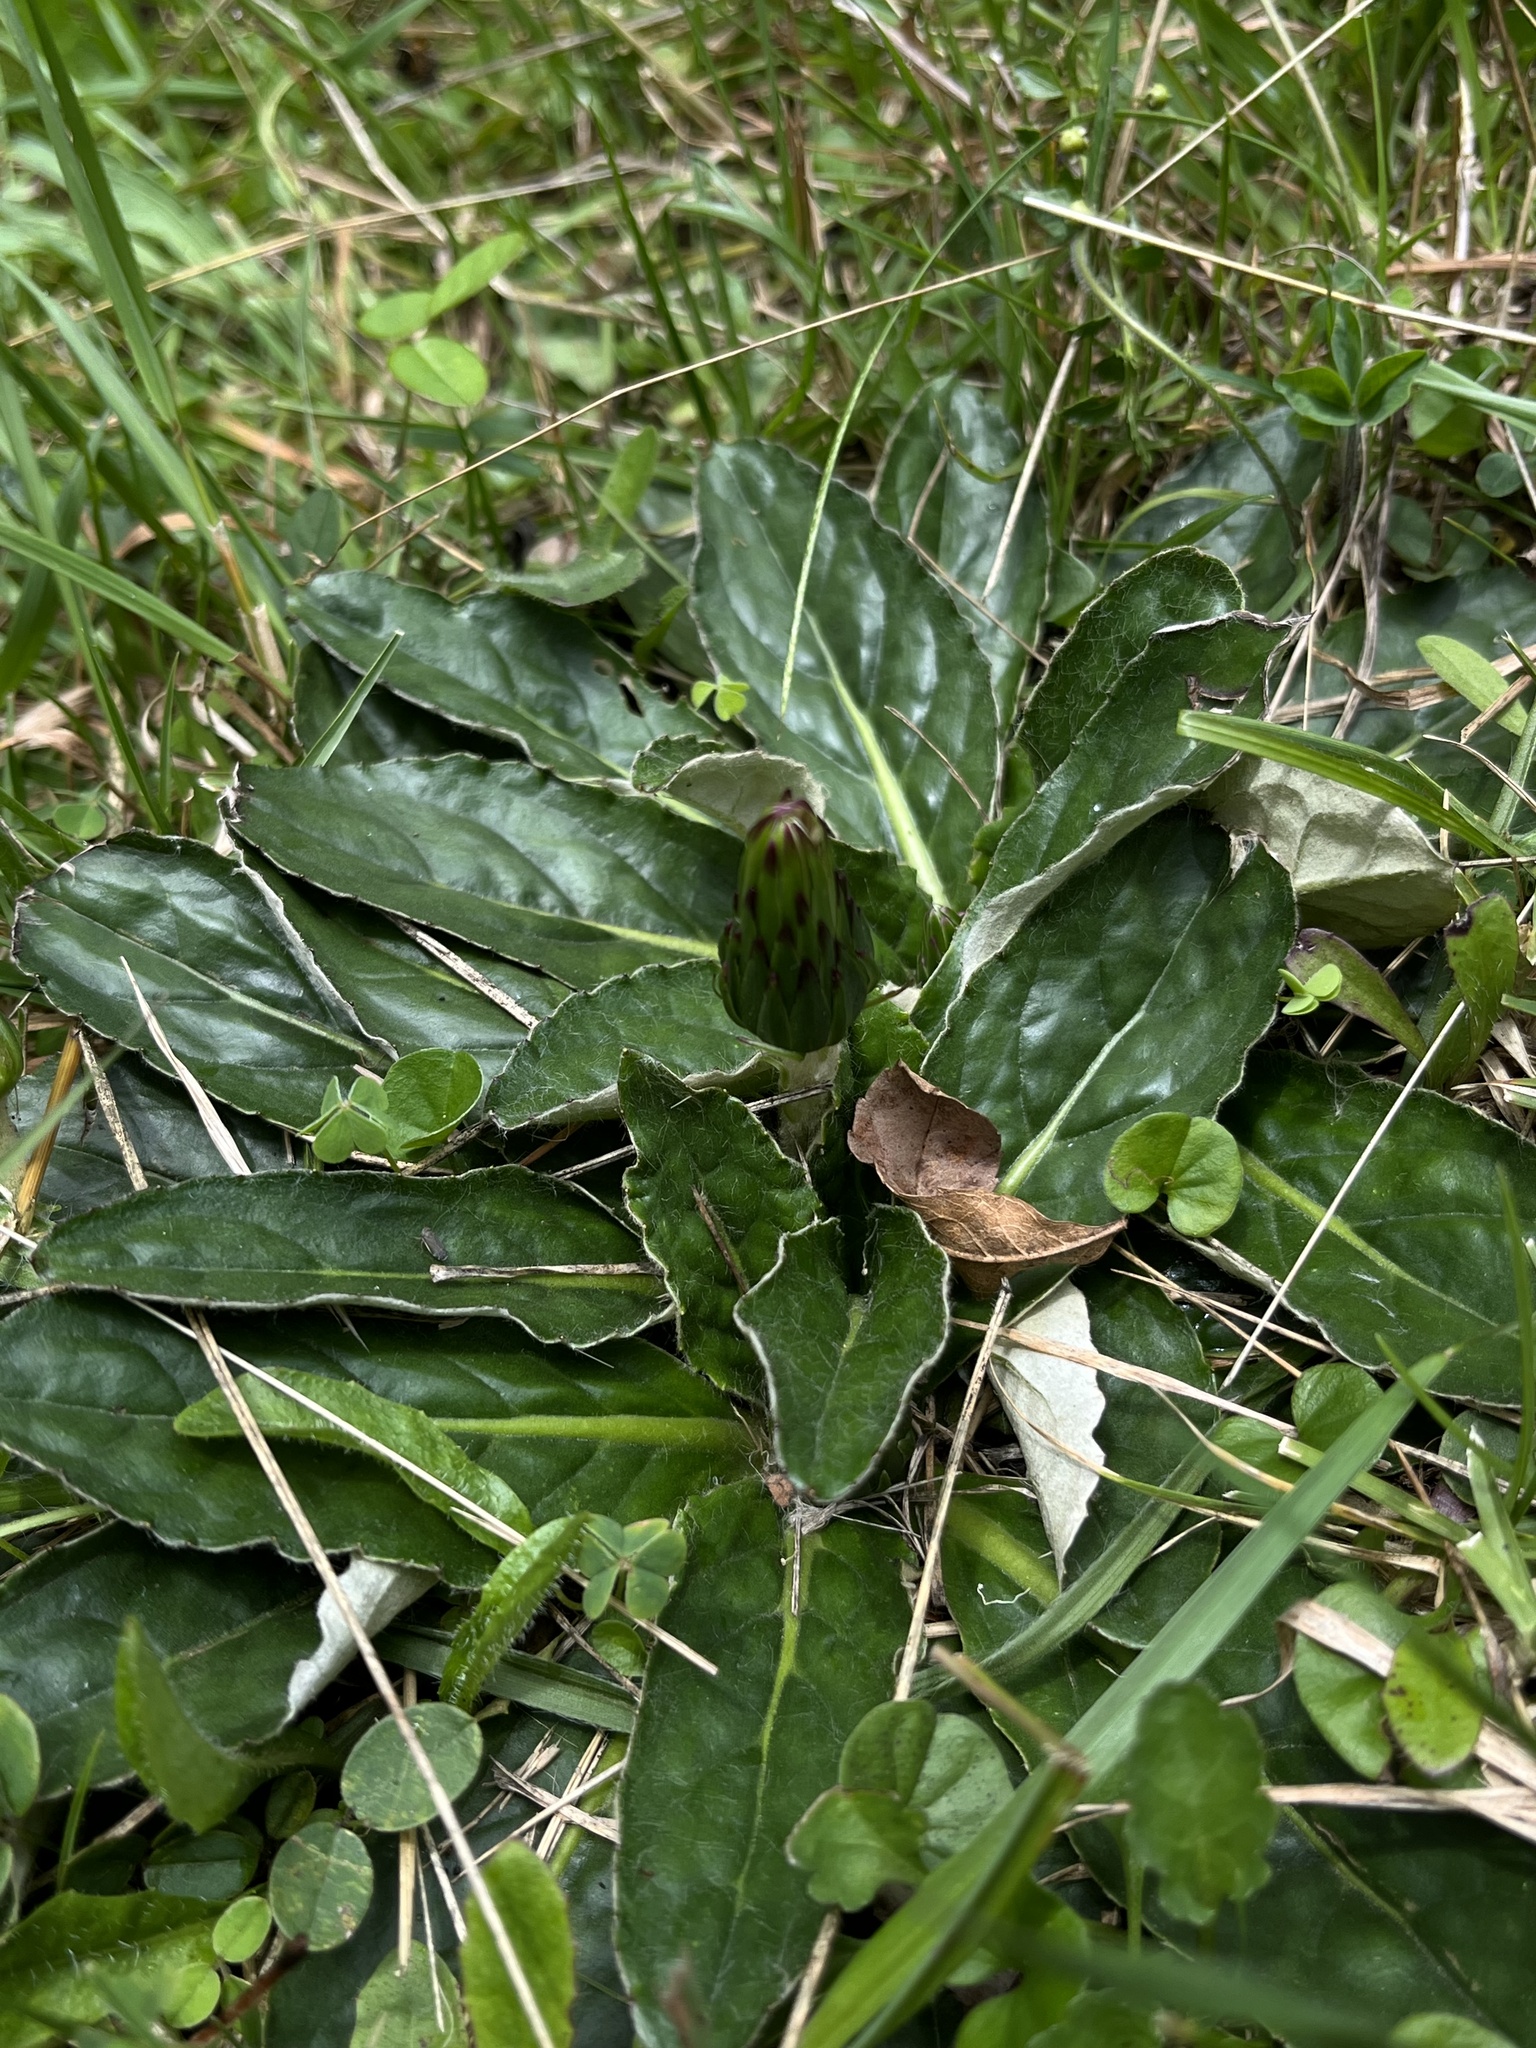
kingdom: Plantae
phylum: Tracheophyta
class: Magnoliopsida
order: Asterales
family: Asteraceae
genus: Chaptalia
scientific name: Chaptalia exscapa
